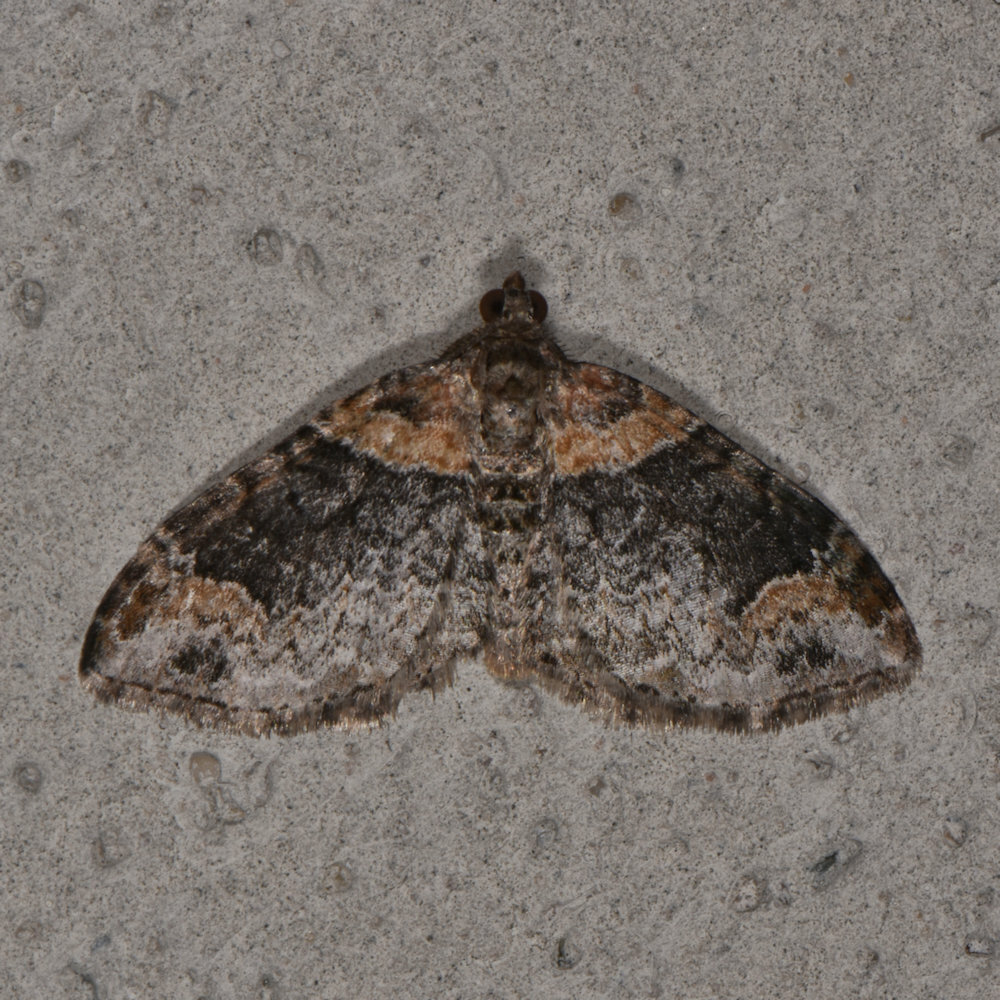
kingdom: Animalia
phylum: Arthropoda
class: Insecta
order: Lepidoptera
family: Geometridae
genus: Xanthorhoe
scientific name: Xanthorhoe ferrugata
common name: Dark-barred twin-spot carpet
